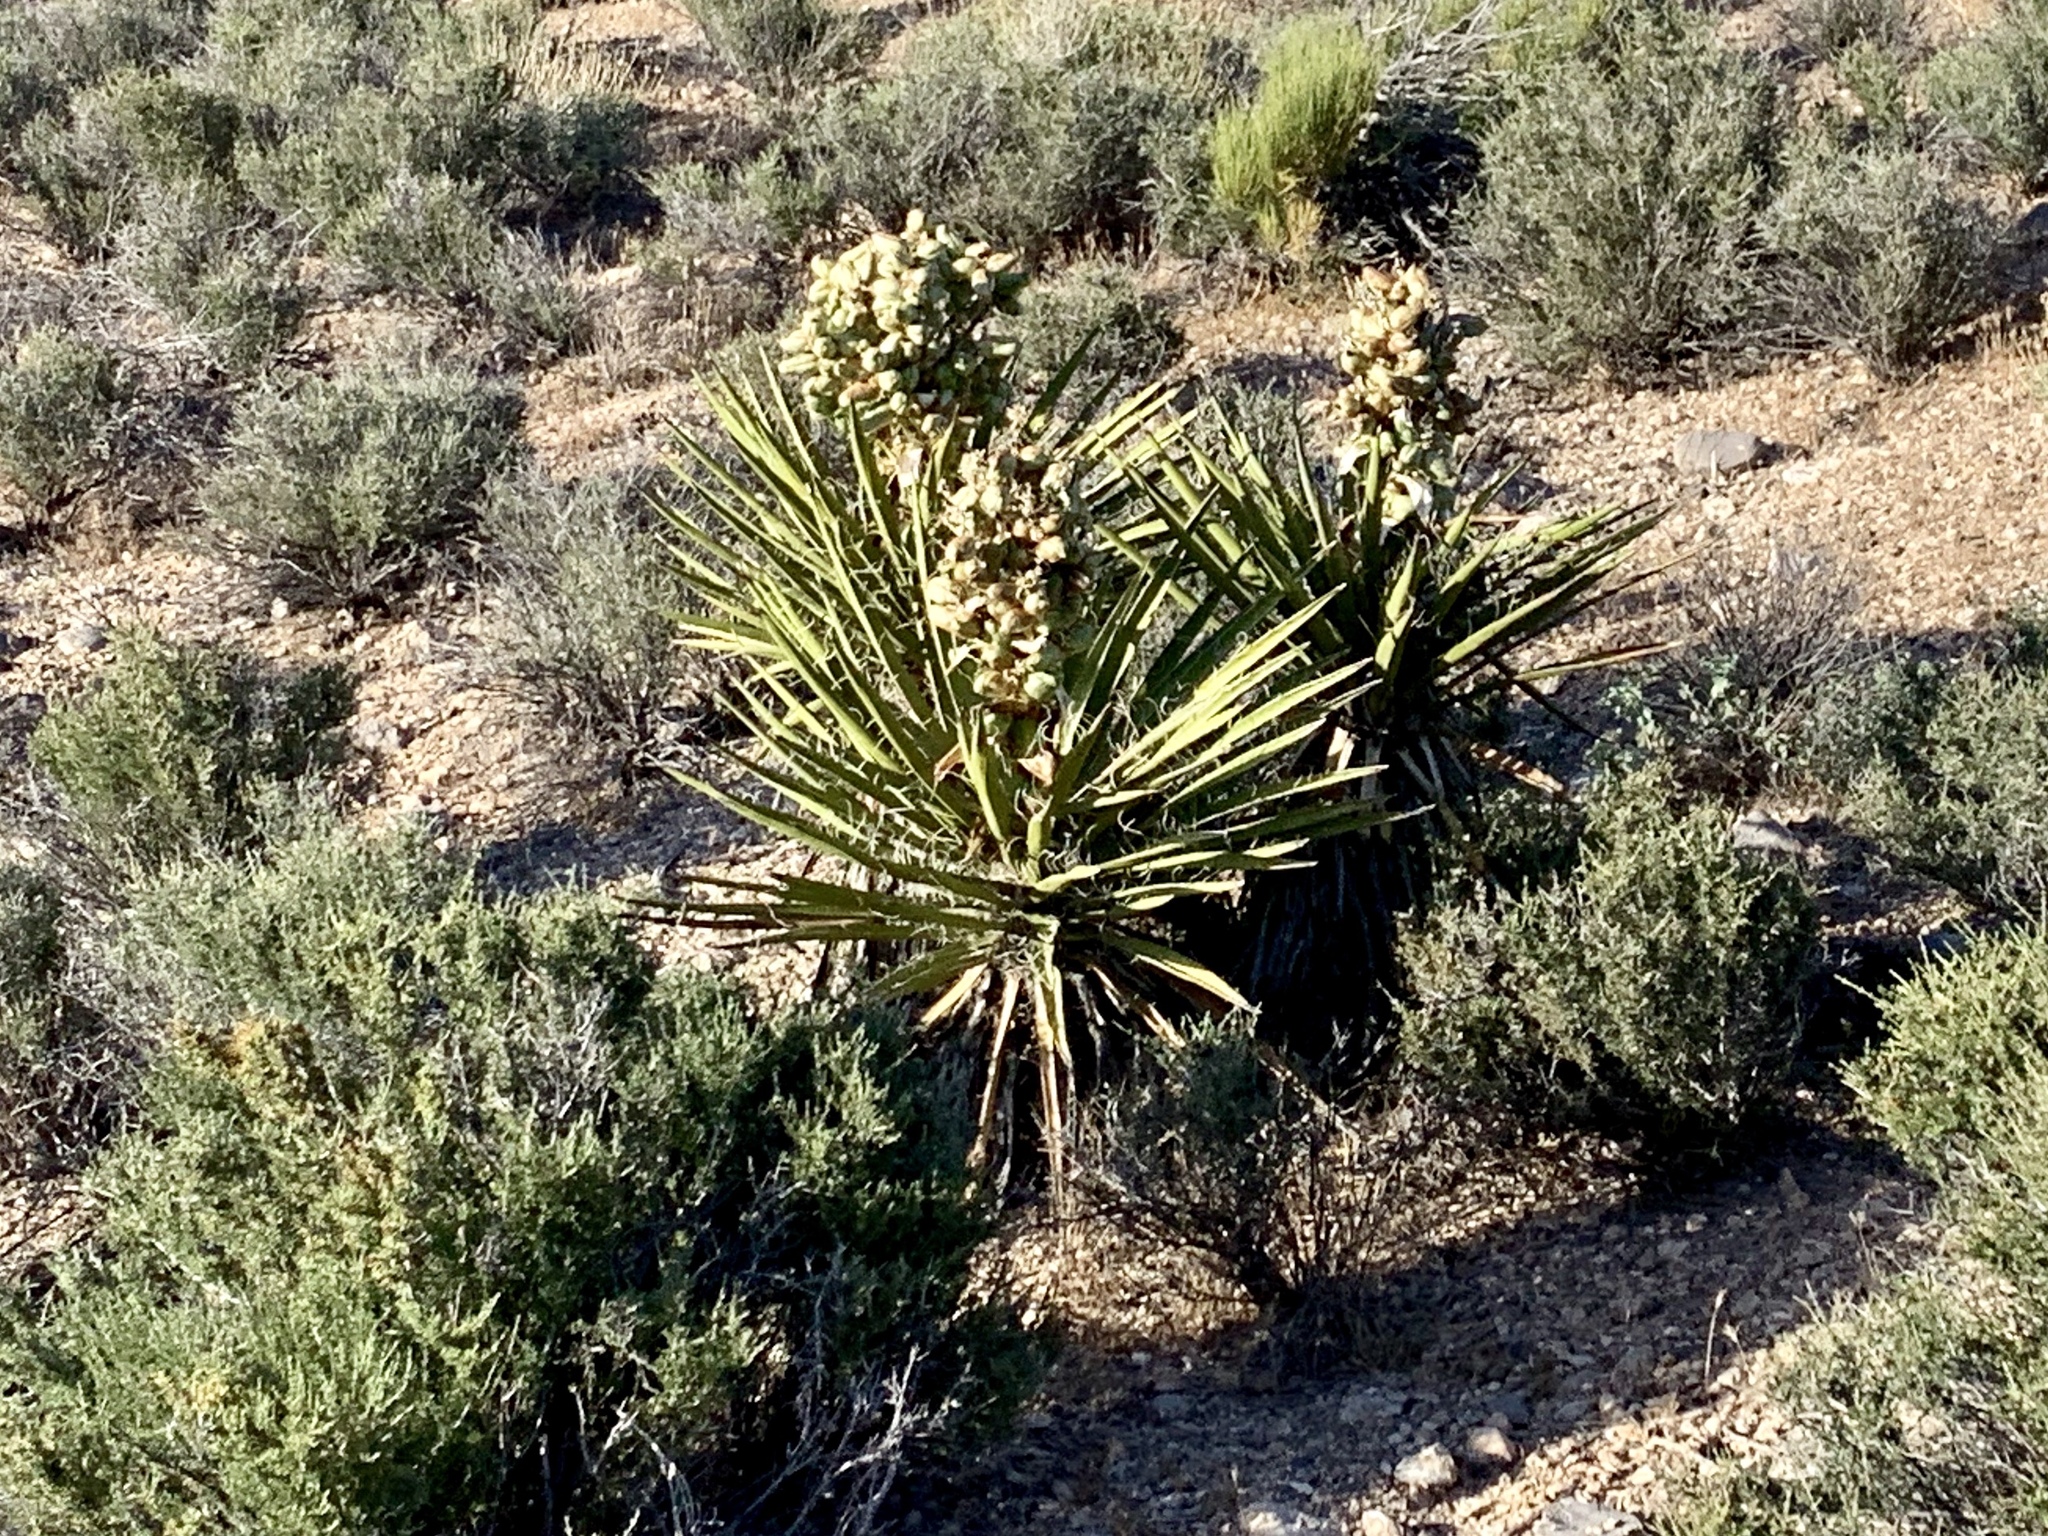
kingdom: Plantae
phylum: Tracheophyta
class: Liliopsida
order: Asparagales
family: Asparagaceae
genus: Yucca
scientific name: Yucca schidigera
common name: Mojave yucca
